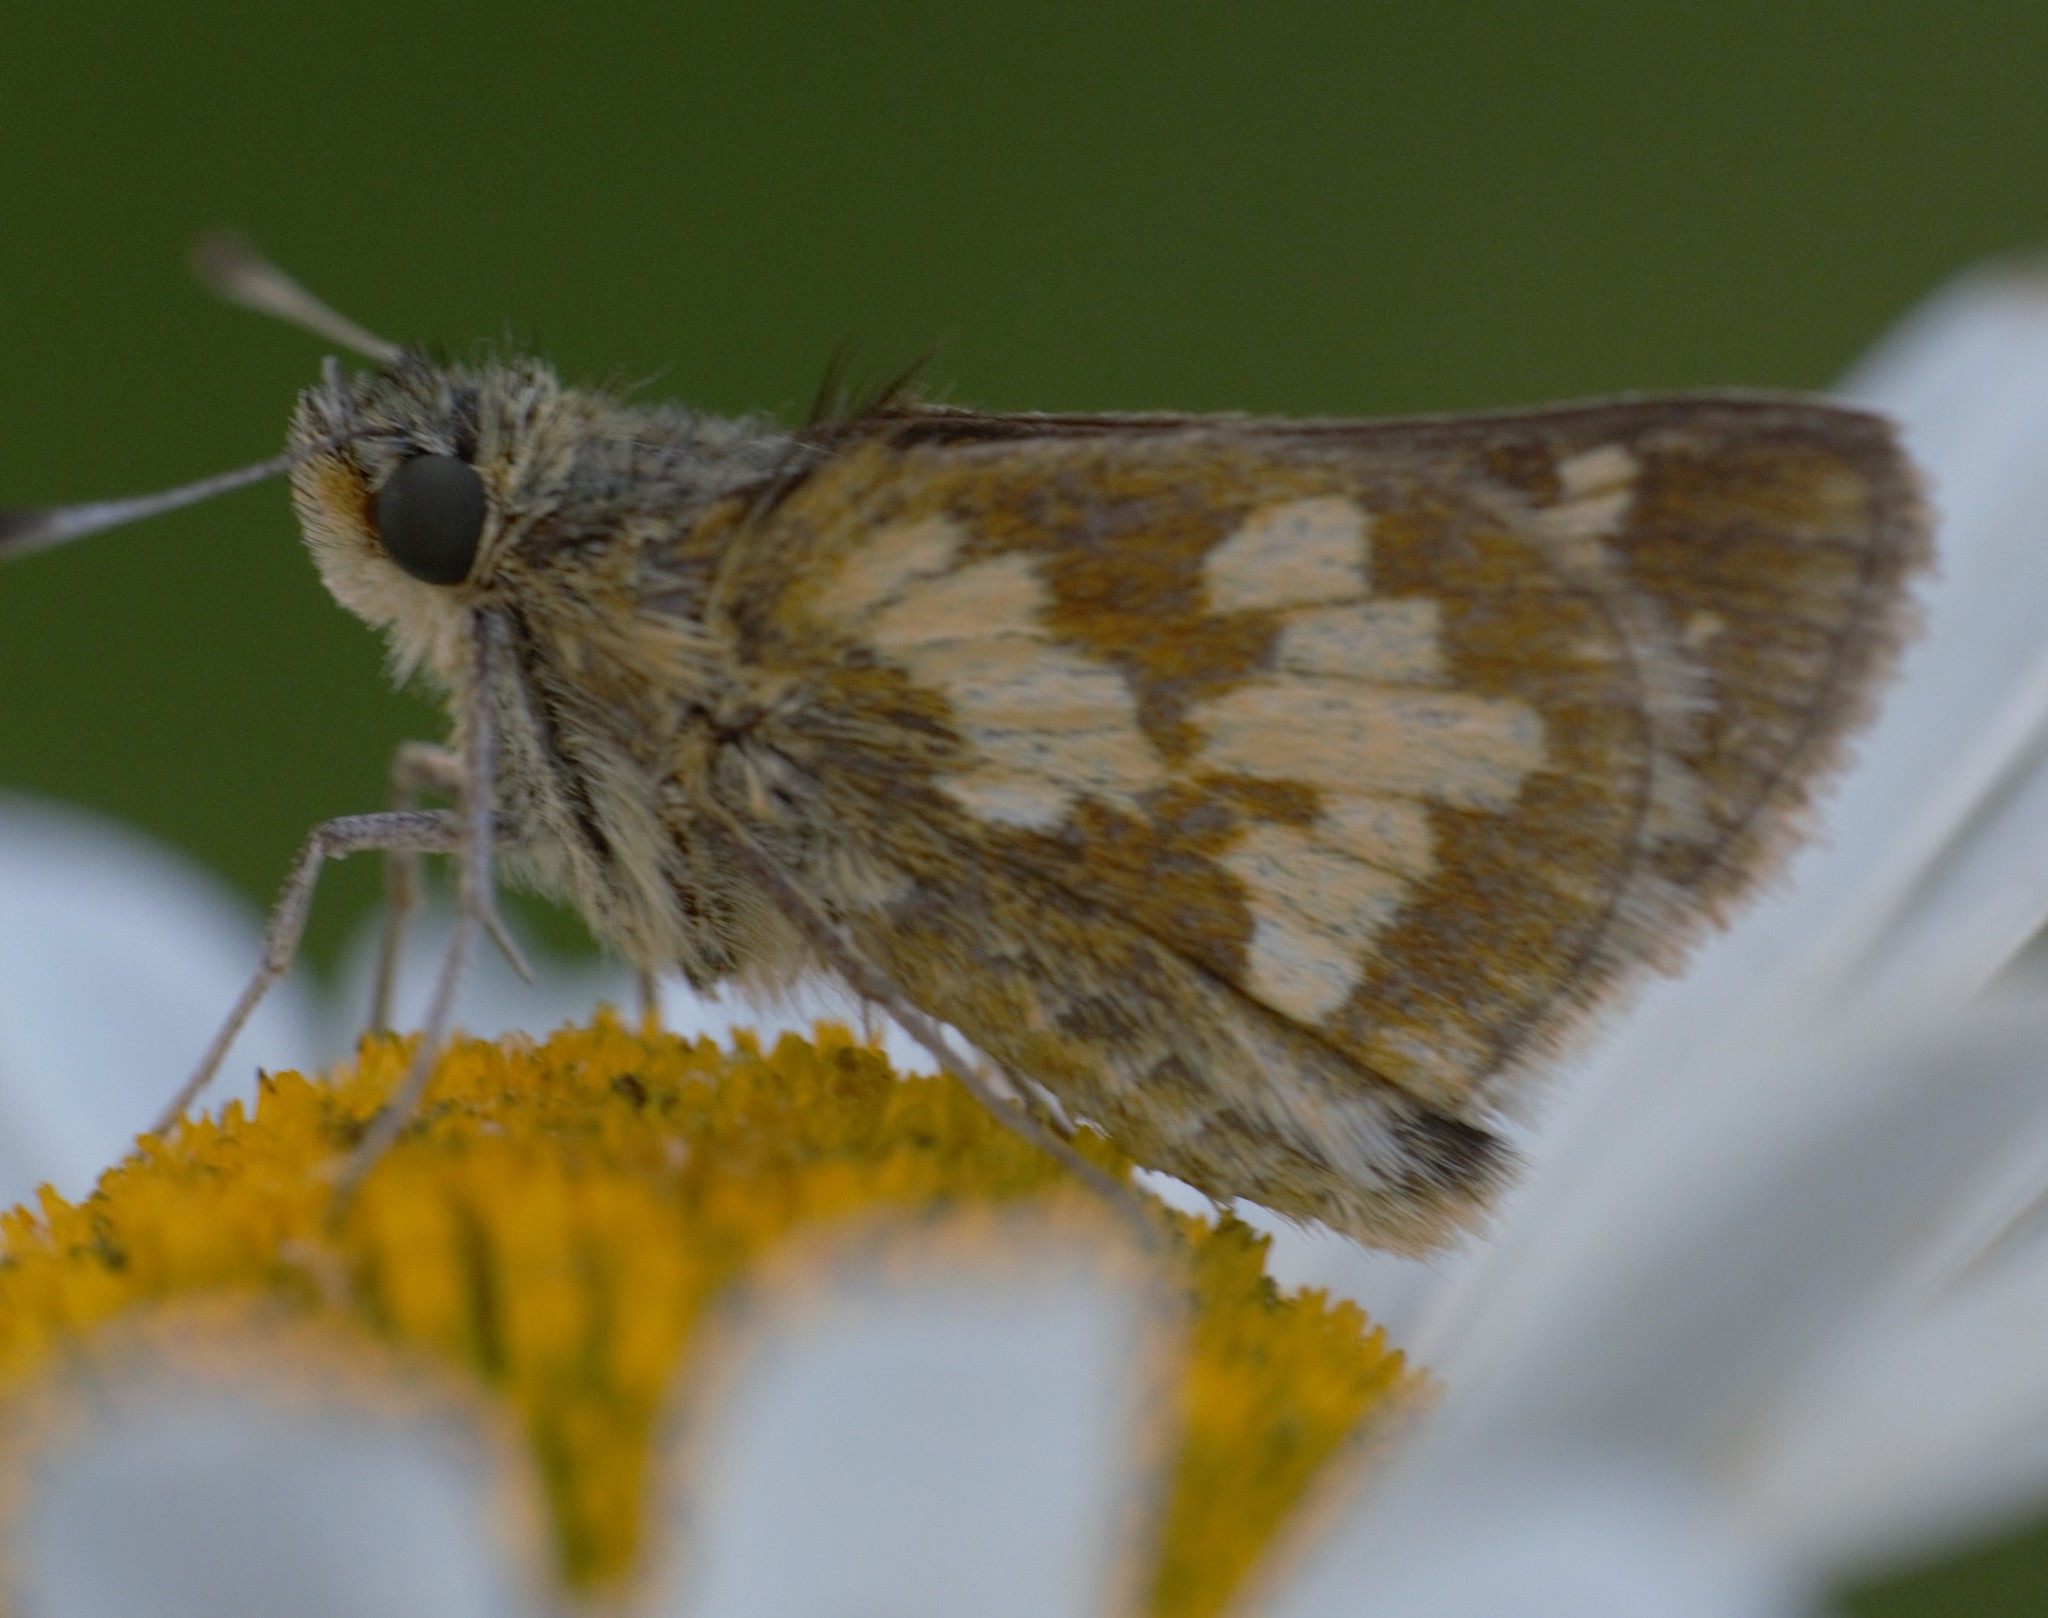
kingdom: Animalia
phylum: Arthropoda
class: Insecta
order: Lepidoptera
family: Hesperiidae
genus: Polites
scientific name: Polites coras
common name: Peck's skipper
